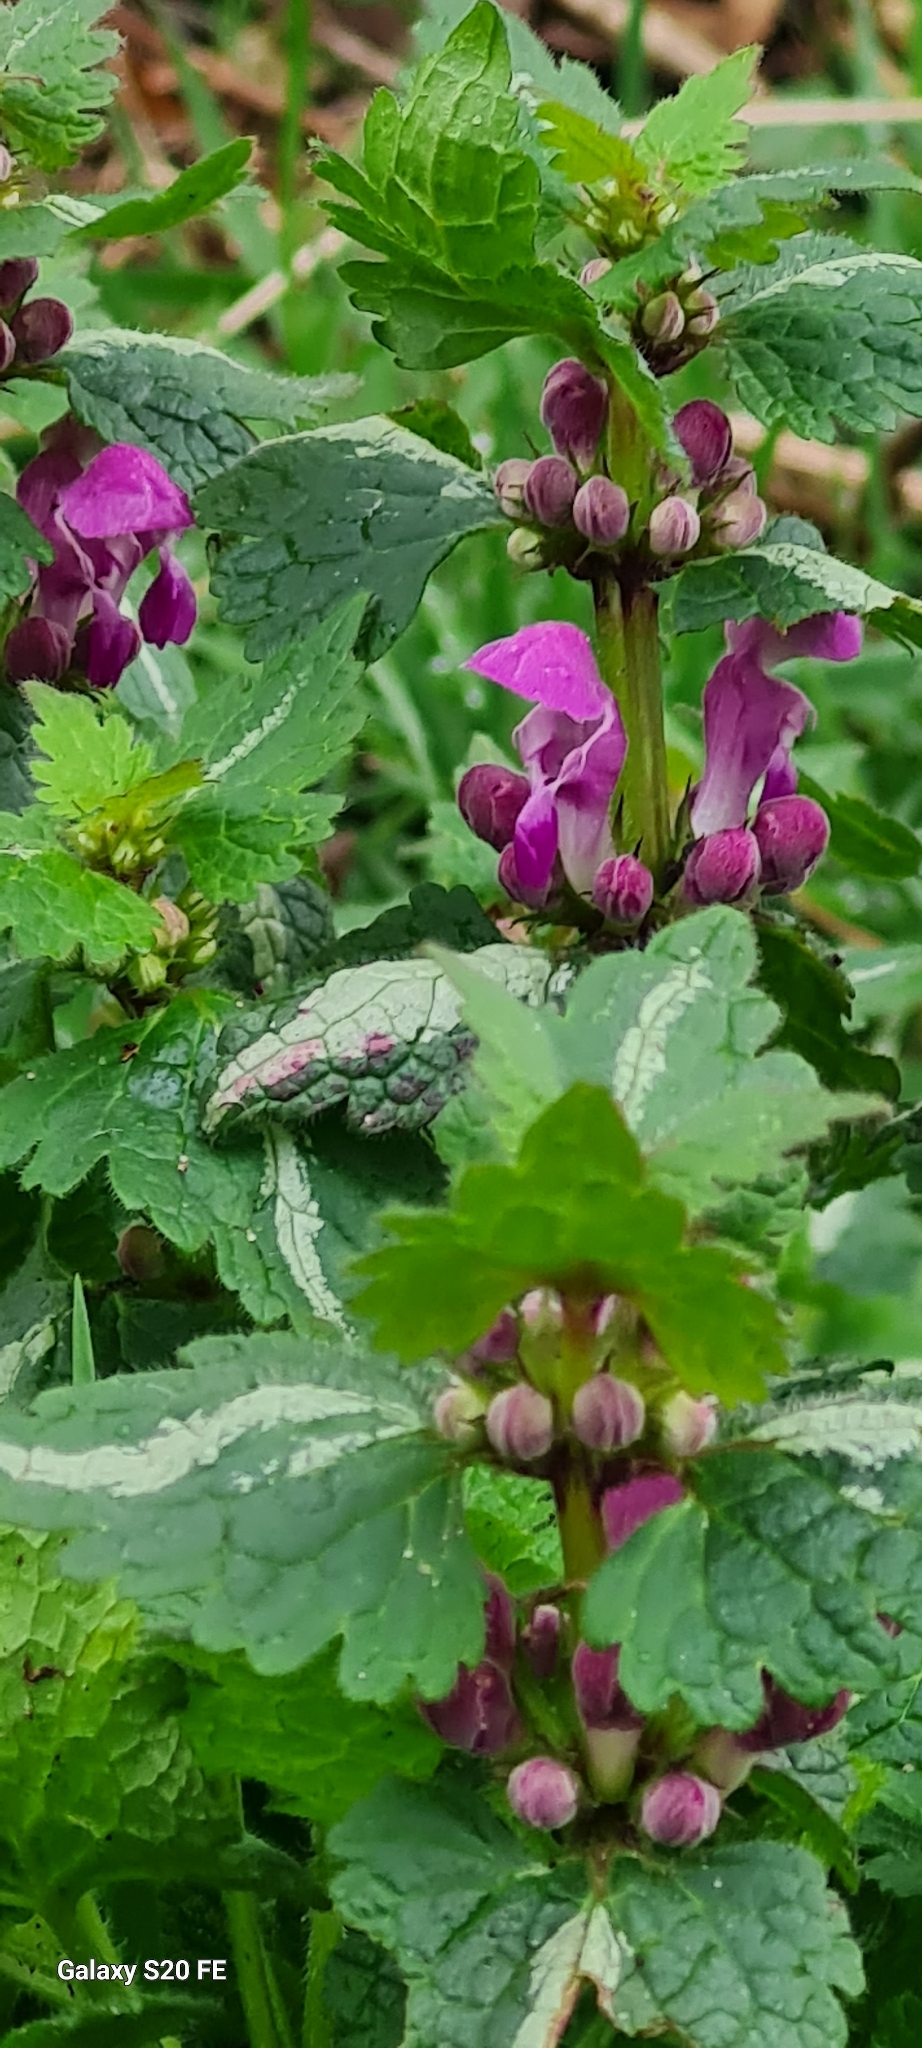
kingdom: Plantae
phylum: Tracheophyta
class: Magnoliopsida
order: Lamiales
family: Lamiaceae
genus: Lamium
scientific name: Lamium maculatum
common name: Spotted dead-nettle
